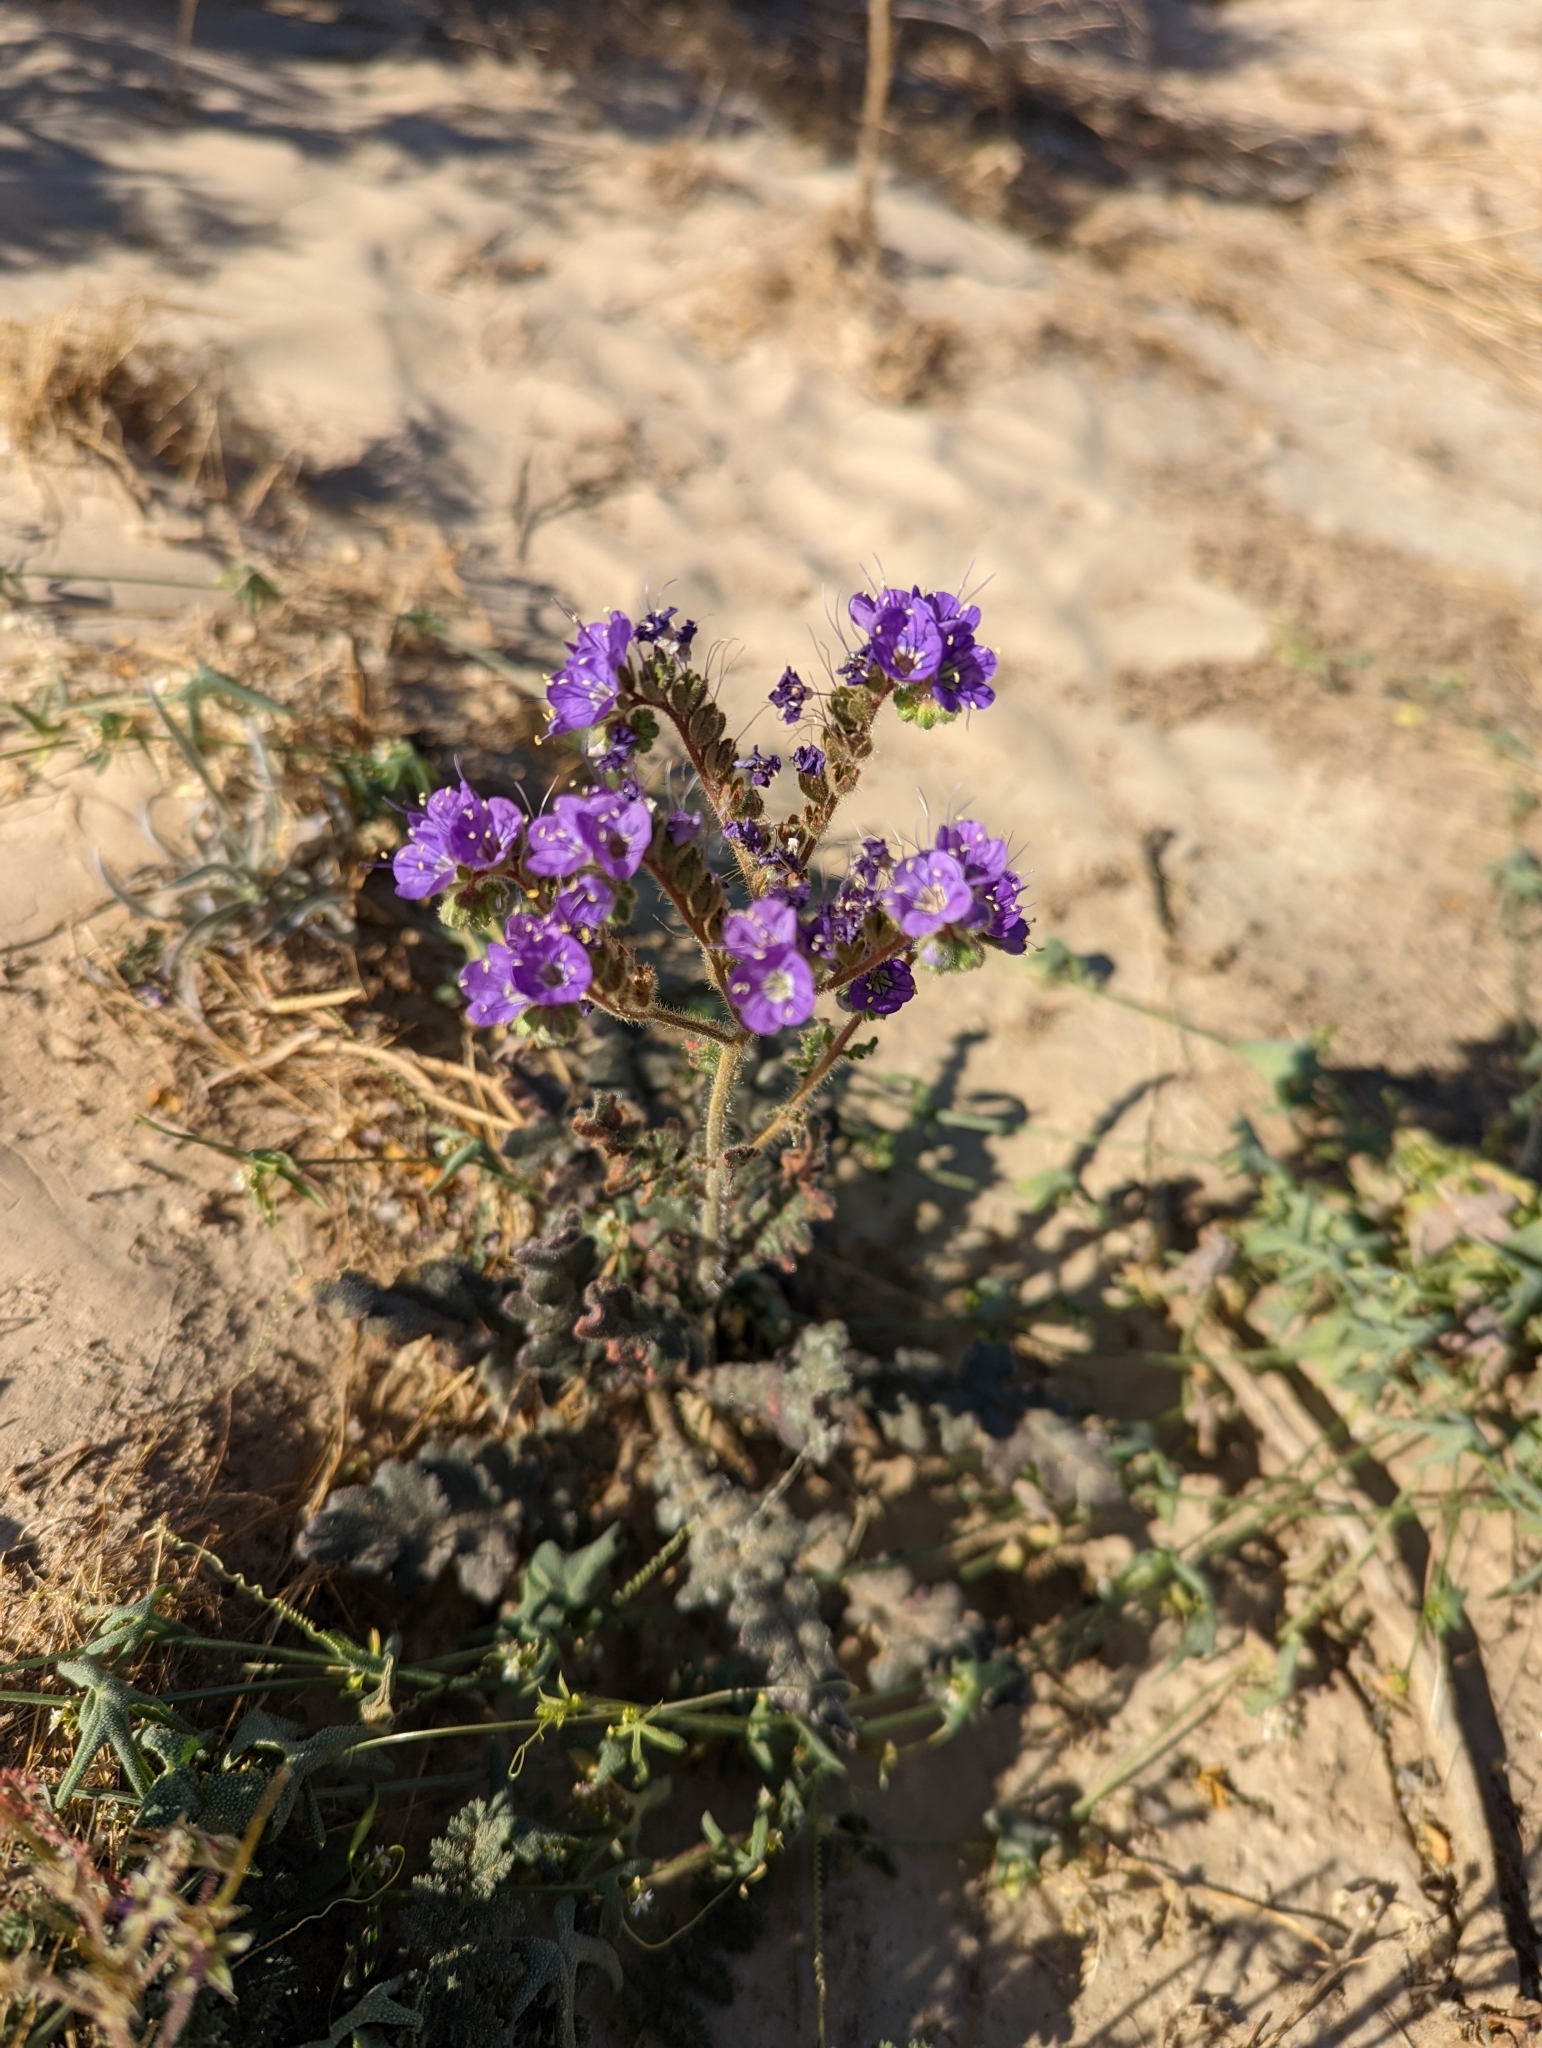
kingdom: Plantae
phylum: Tracheophyta
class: Magnoliopsida
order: Boraginales
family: Hydrophyllaceae
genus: Phacelia
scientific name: Phacelia crenulata
